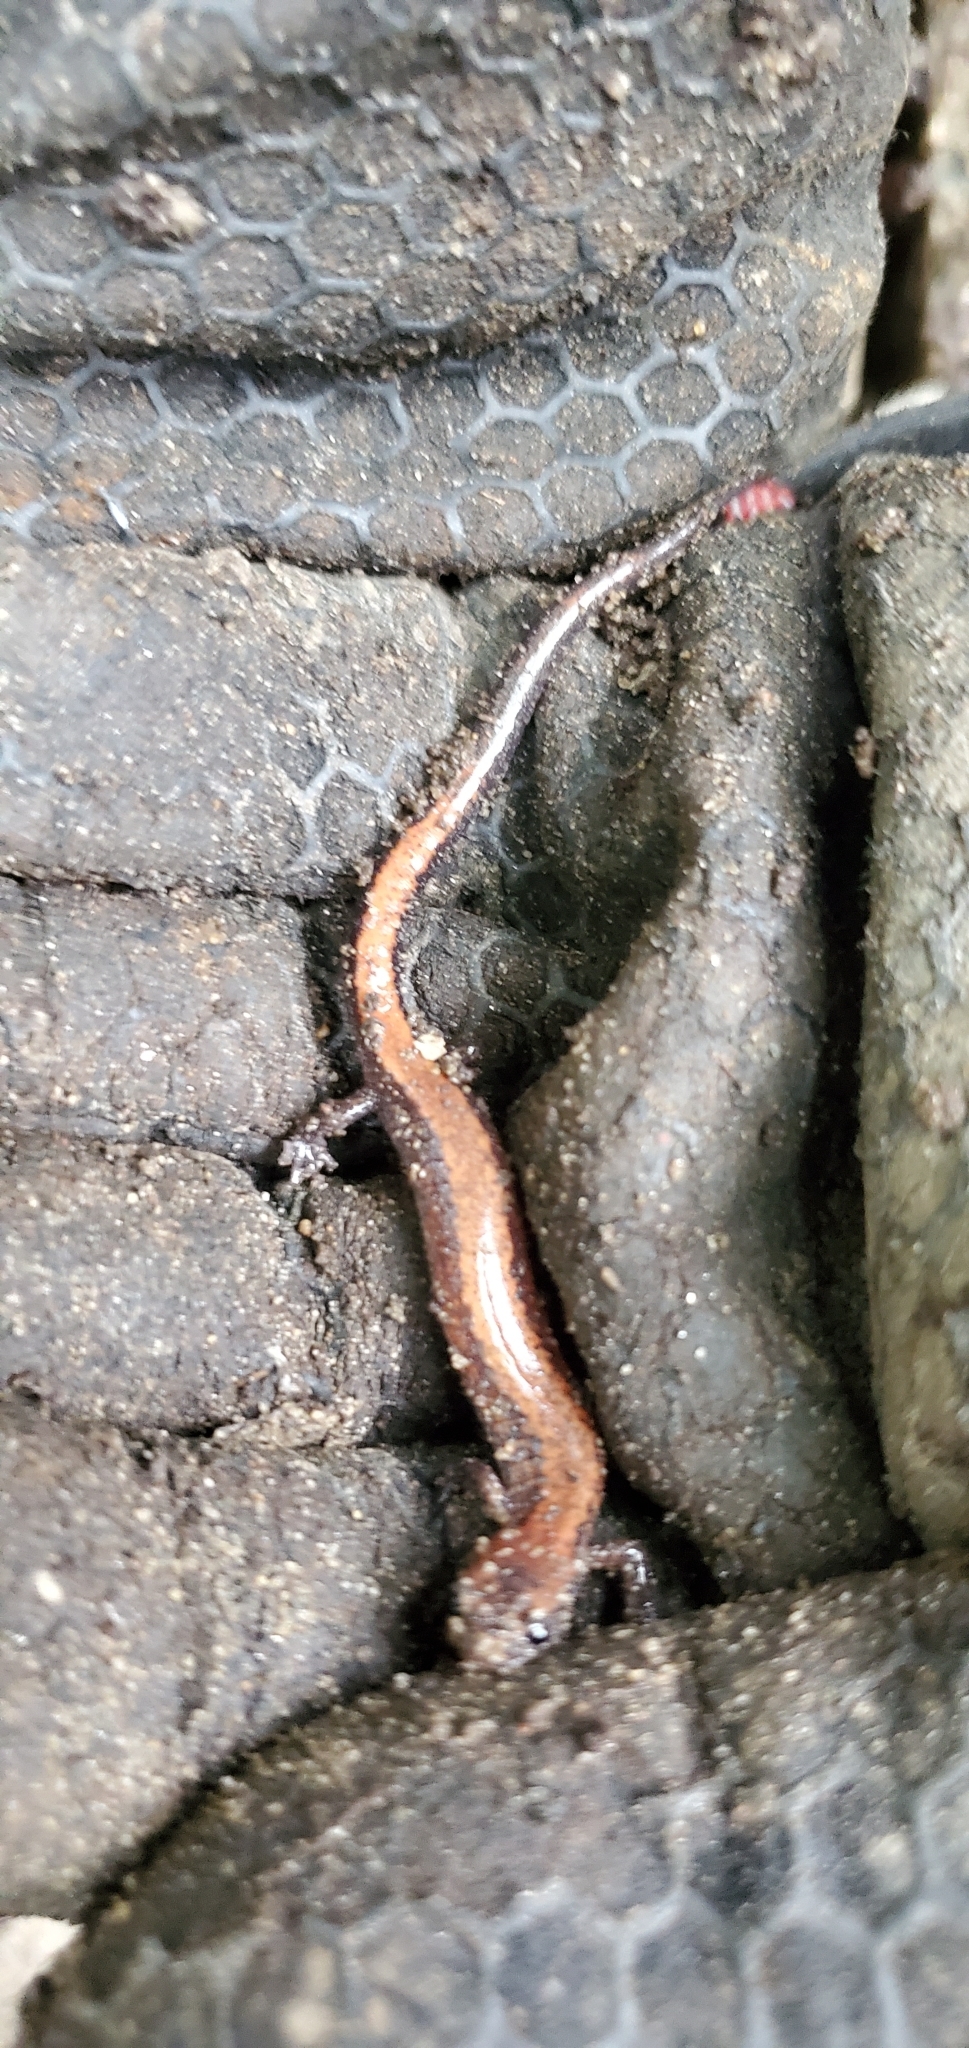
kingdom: Animalia
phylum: Chordata
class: Amphibia
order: Caudata
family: Plethodontidae
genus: Plethodon
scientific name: Plethodon cinereus
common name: Redback salamander
